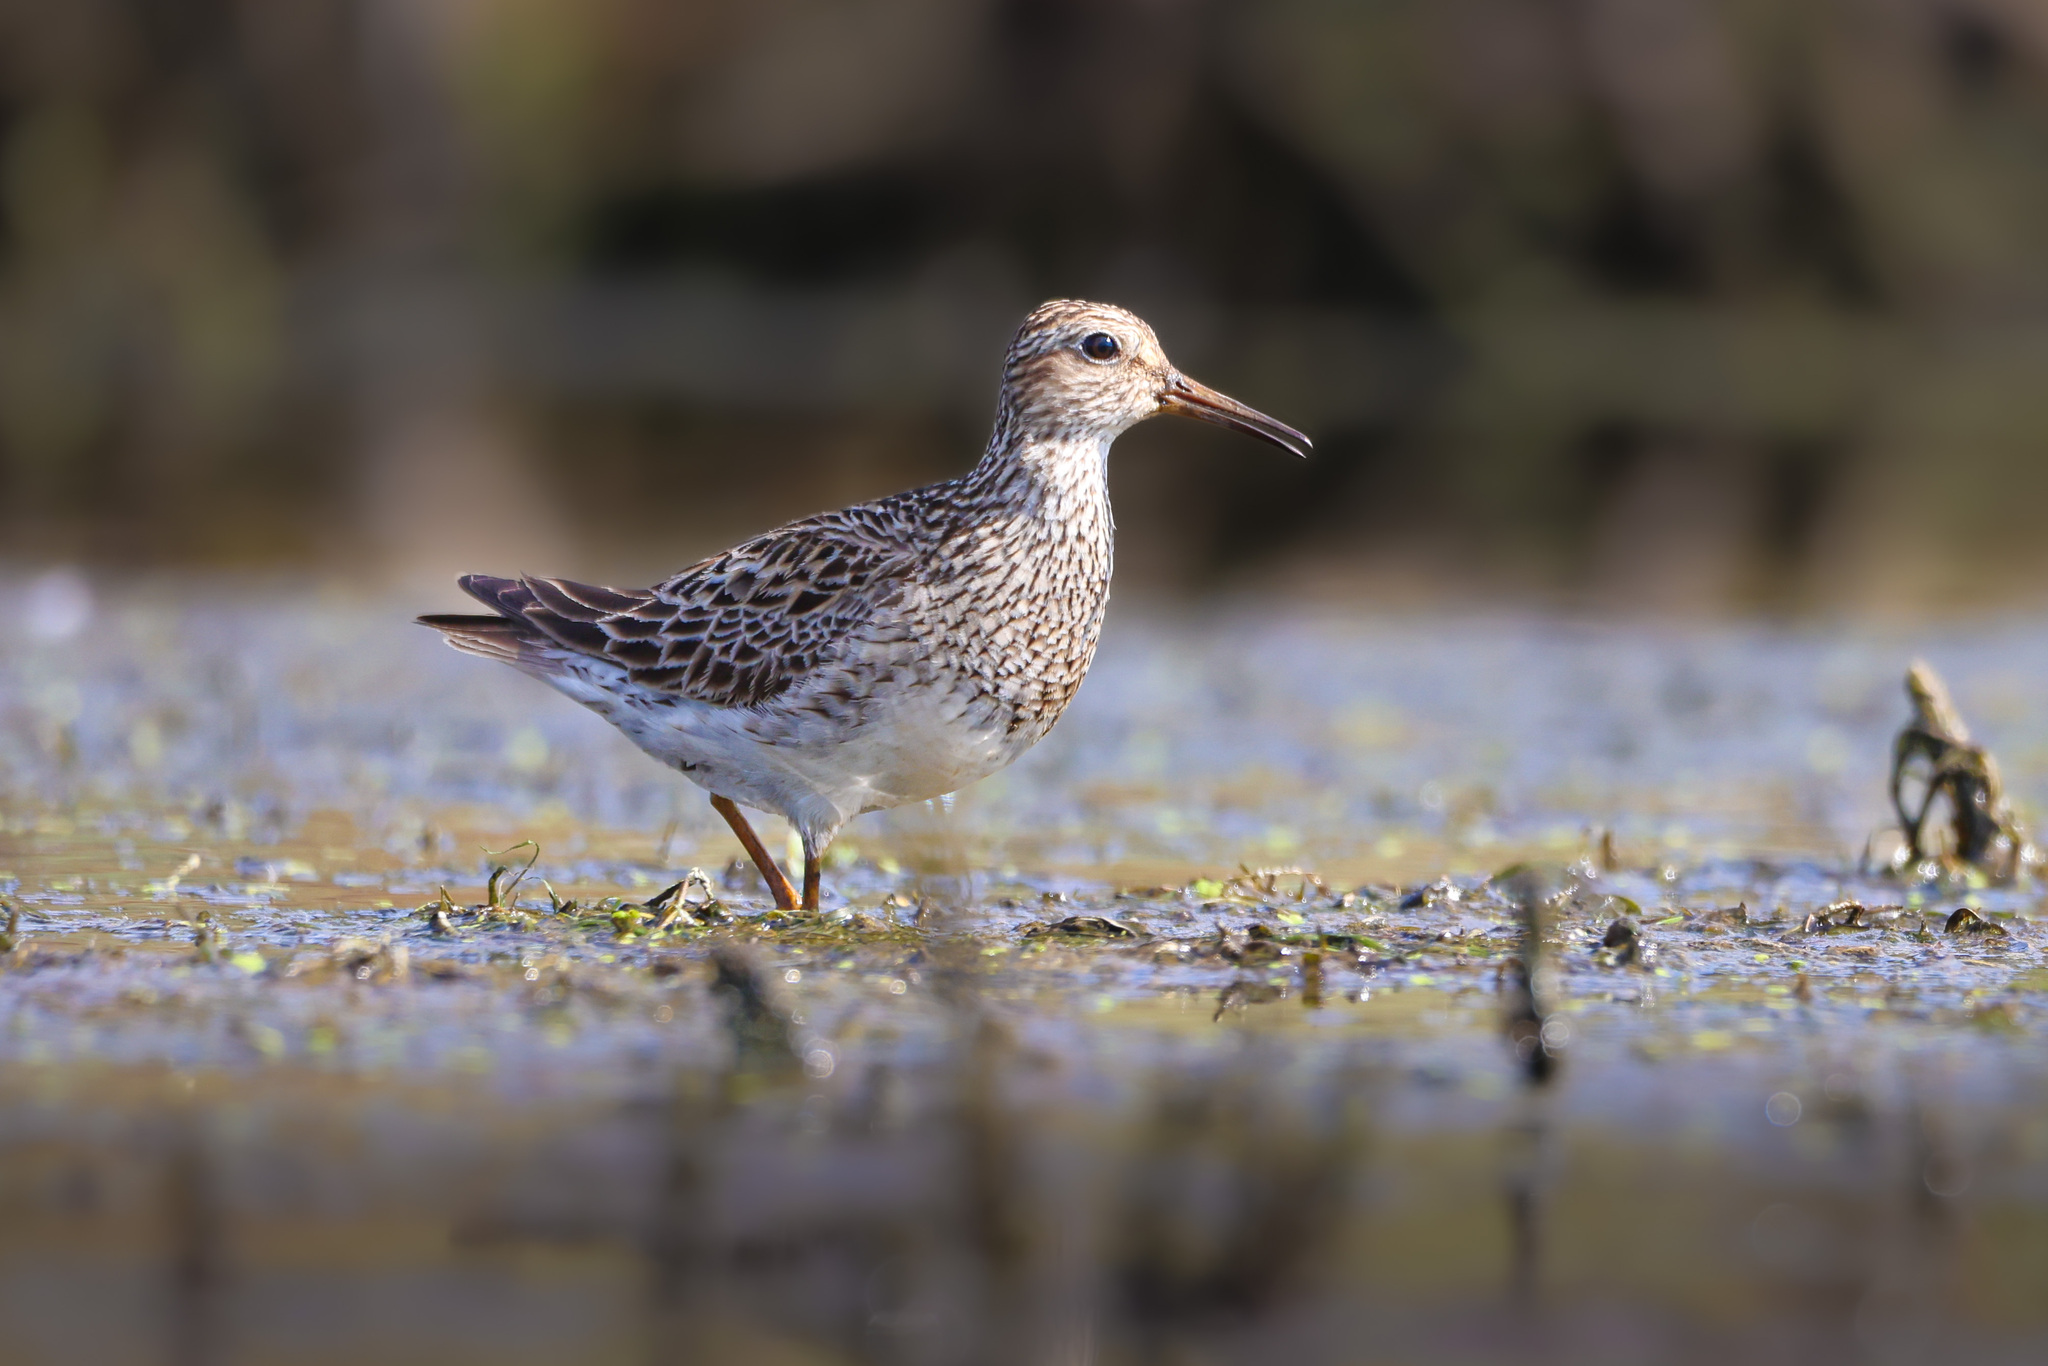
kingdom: Animalia
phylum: Chordata
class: Aves
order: Charadriiformes
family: Scolopacidae
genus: Calidris
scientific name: Calidris melanotos
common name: Pectoral sandpiper
